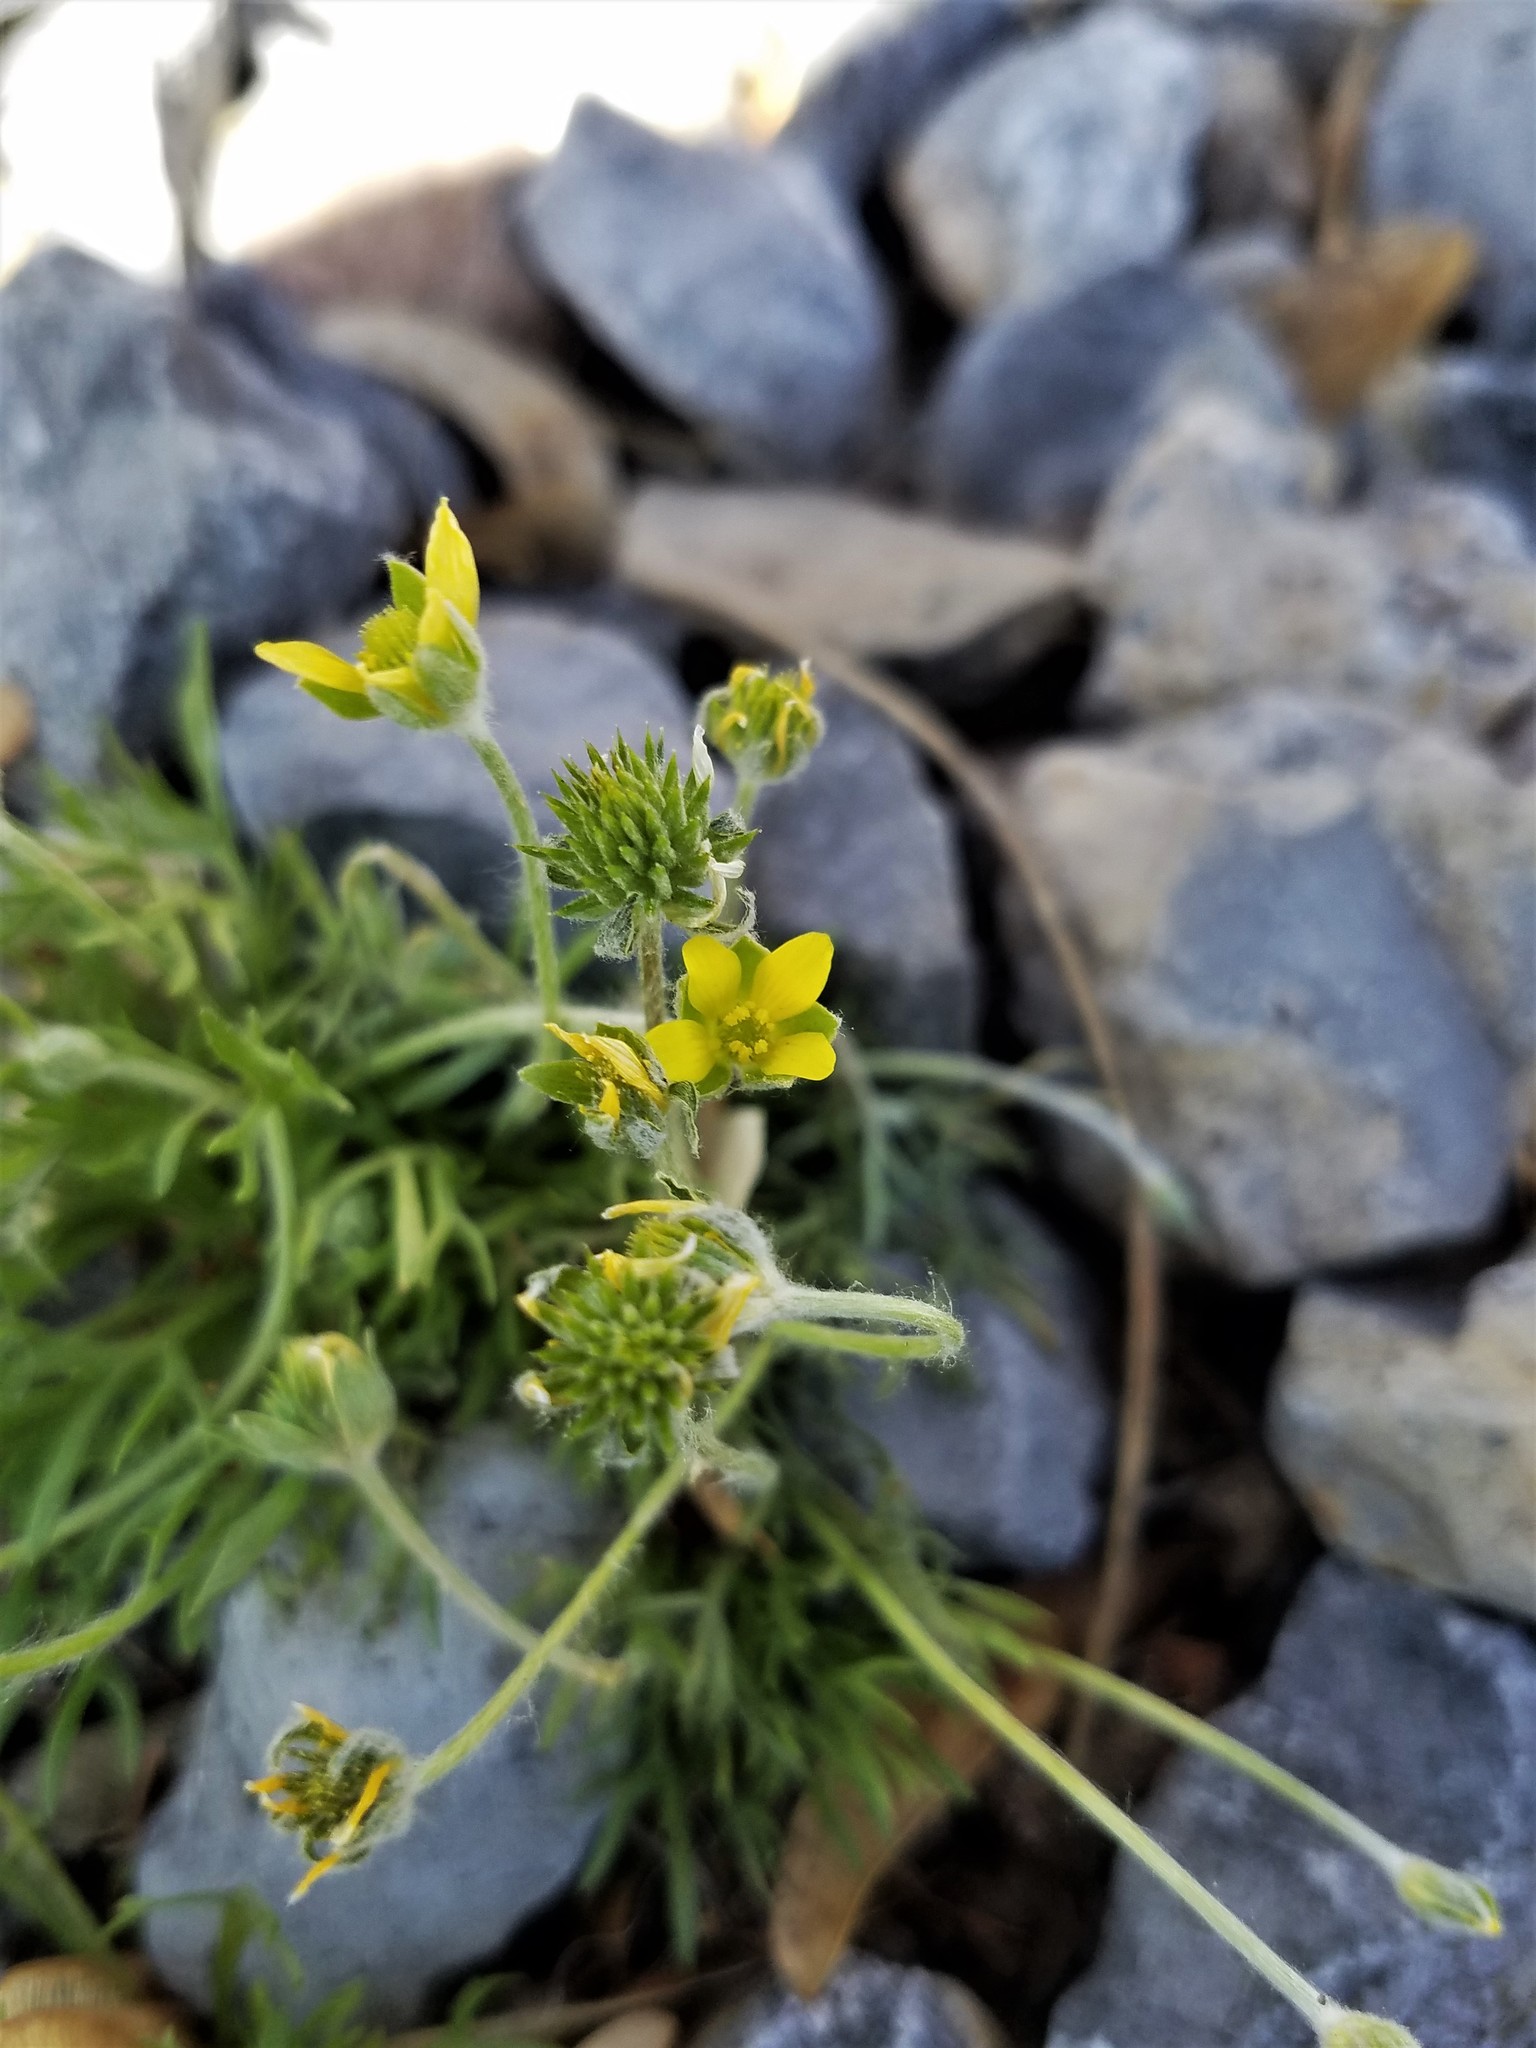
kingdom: Plantae
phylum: Tracheophyta
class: Magnoliopsida
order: Ranunculales
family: Ranunculaceae
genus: Ceratocephala
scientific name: Ceratocephala orthoceras
